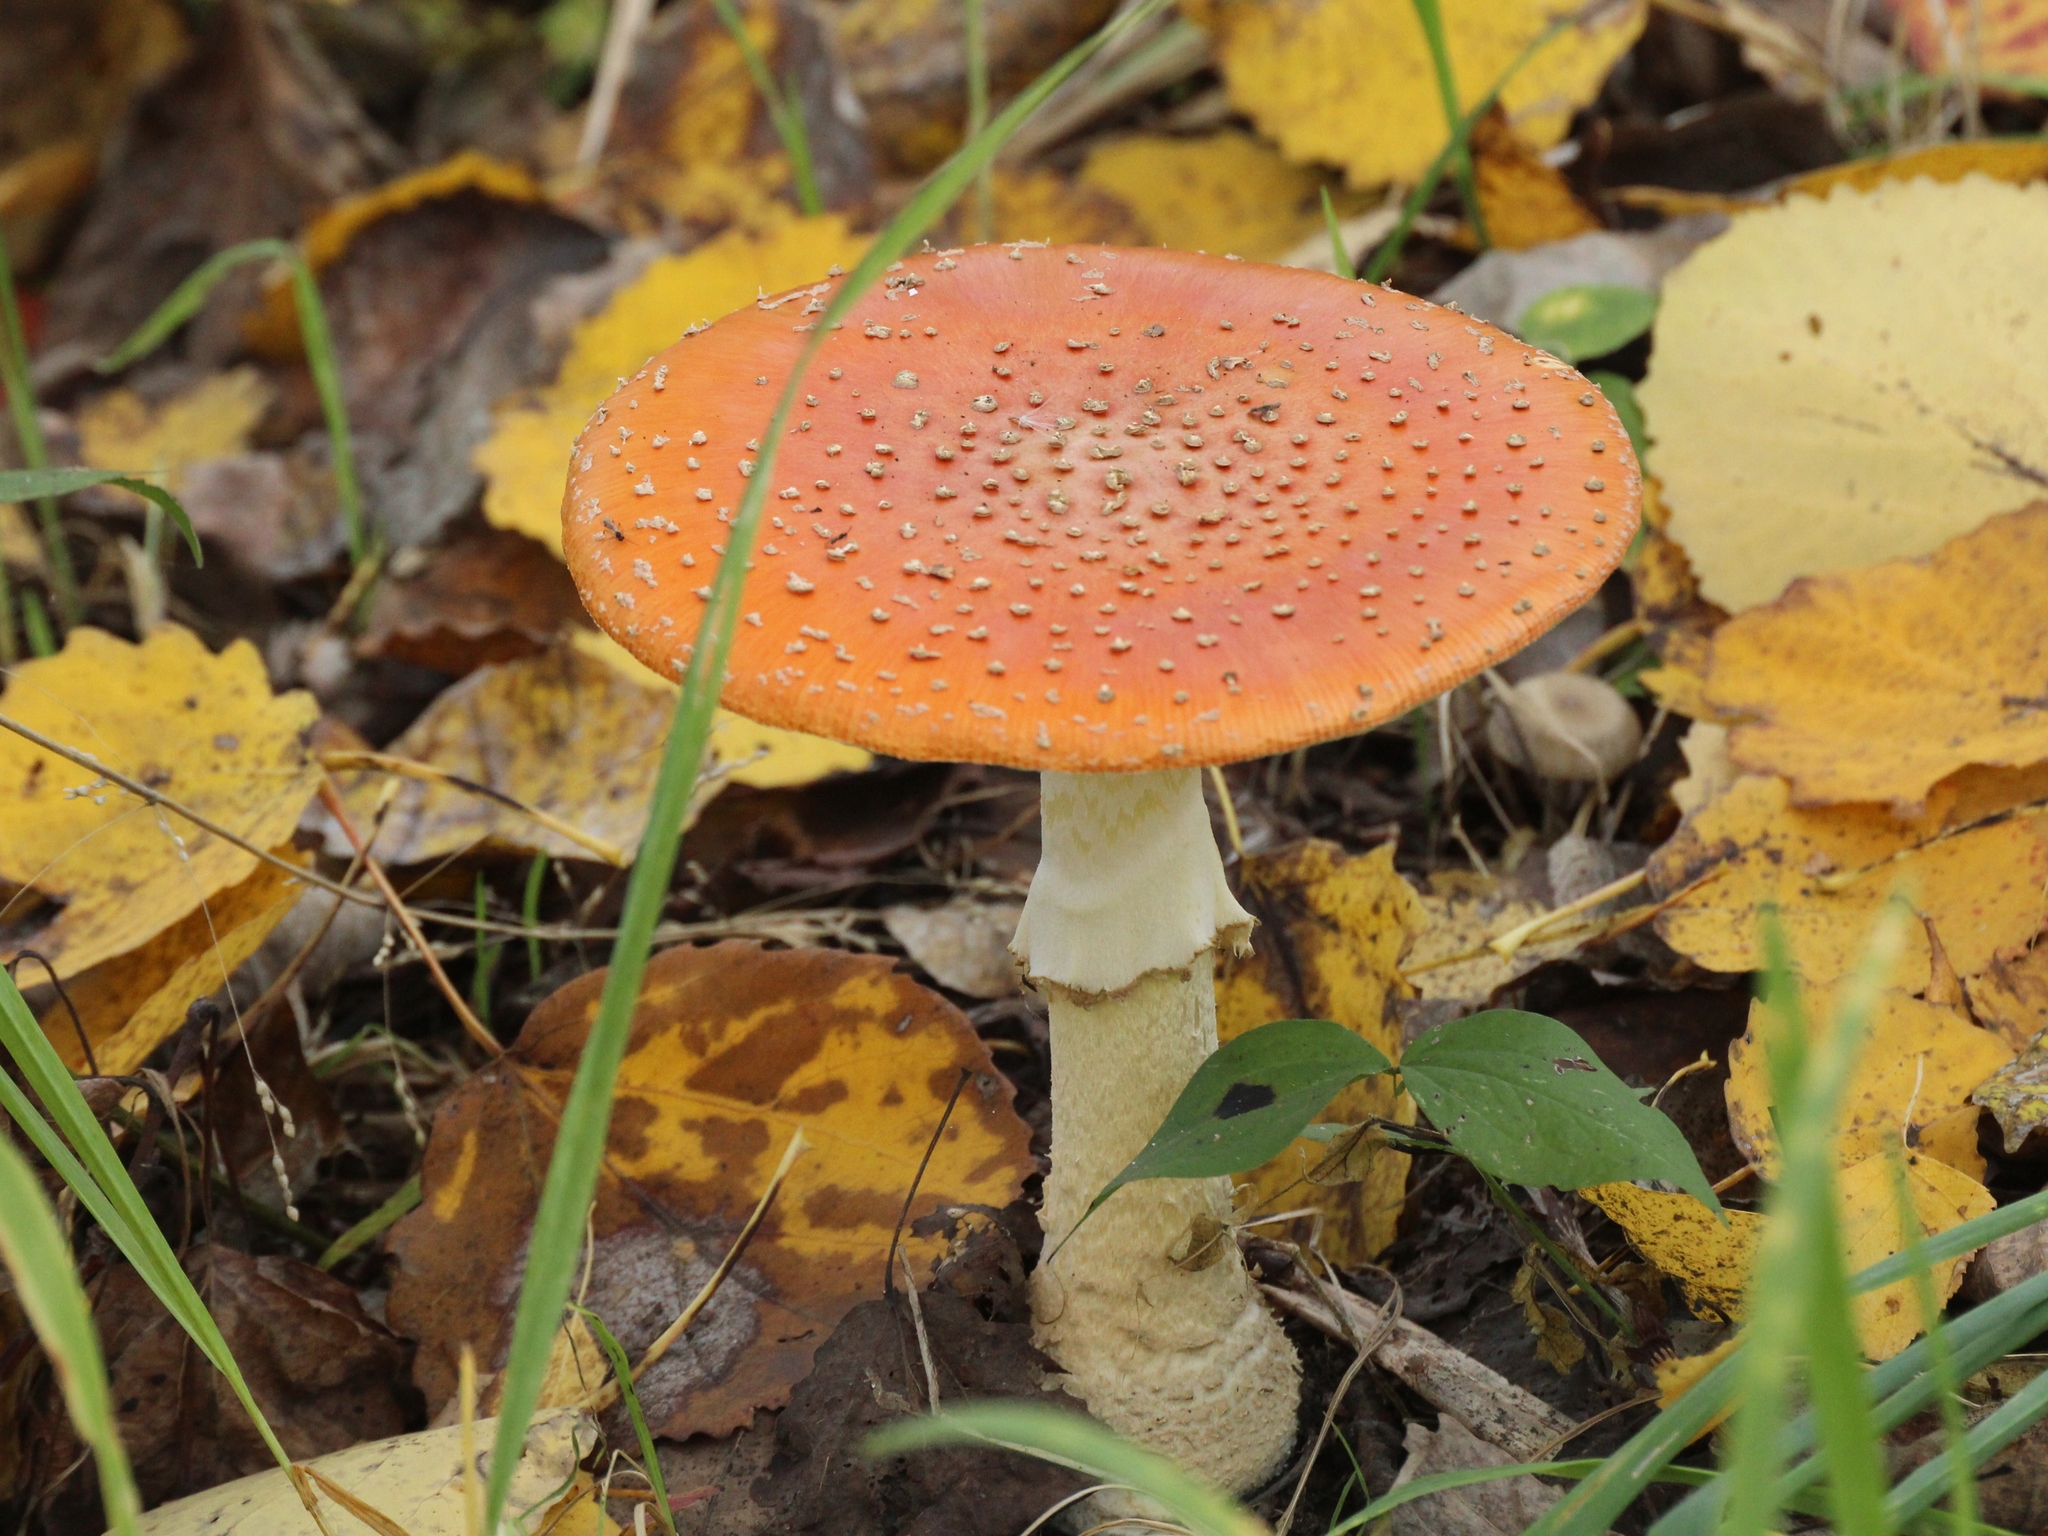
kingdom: Fungi
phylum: Basidiomycota
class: Agaricomycetes
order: Agaricales
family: Amanitaceae
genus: Amanita
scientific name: Amanita muscaria
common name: Fly agaric
